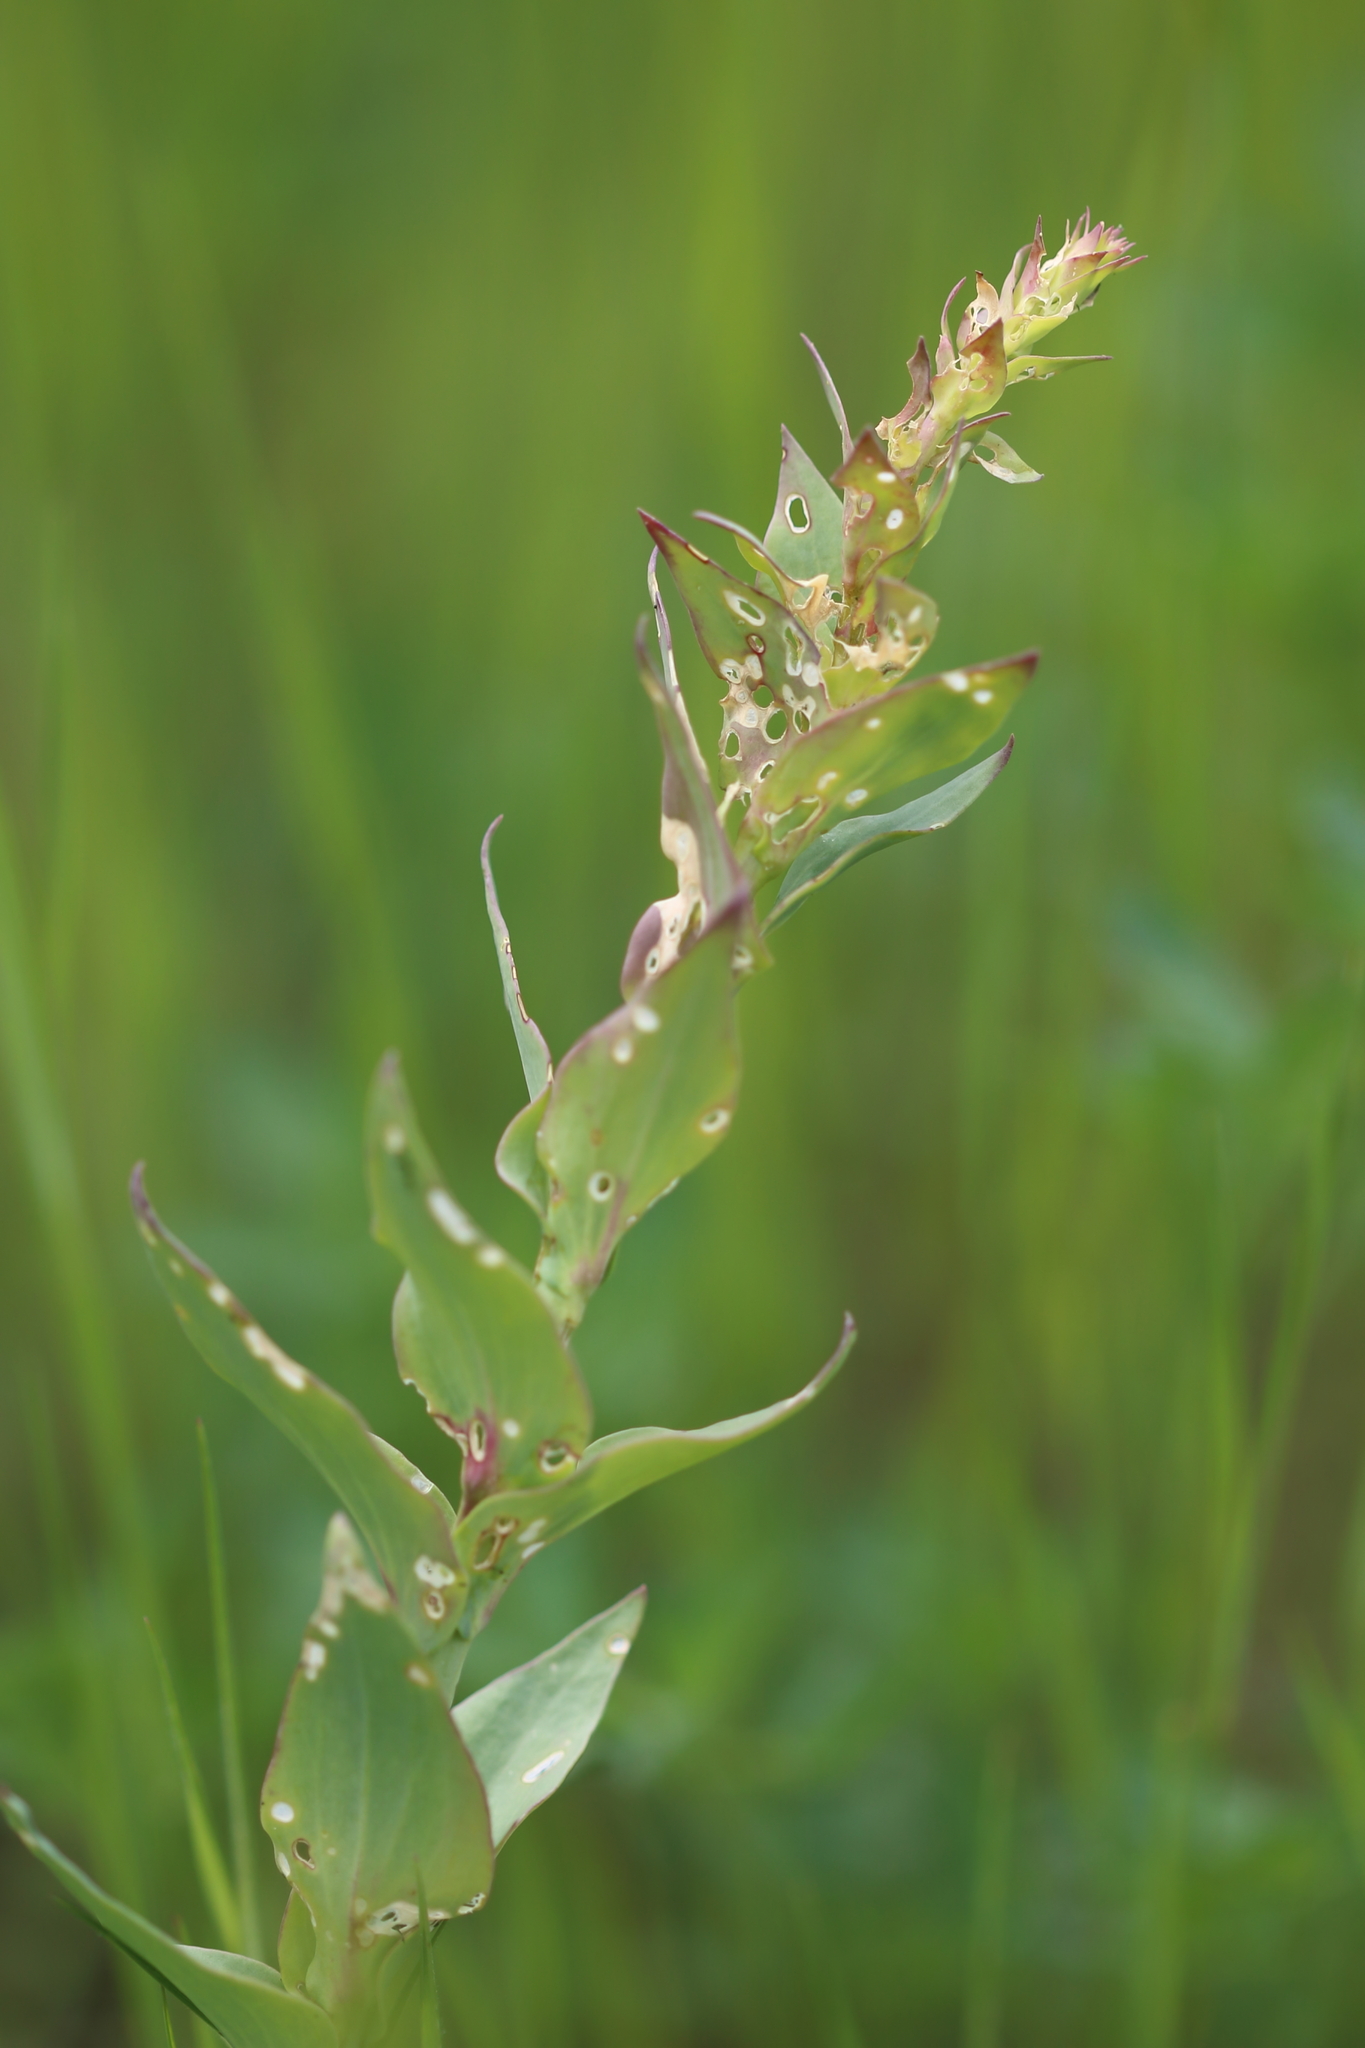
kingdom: Plantae
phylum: Tracheophyta
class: Magnoliopsida
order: Lamiales
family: Plantaginaceae
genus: Linaria
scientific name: Linaria dalmatica
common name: Dalmatian toadflax
